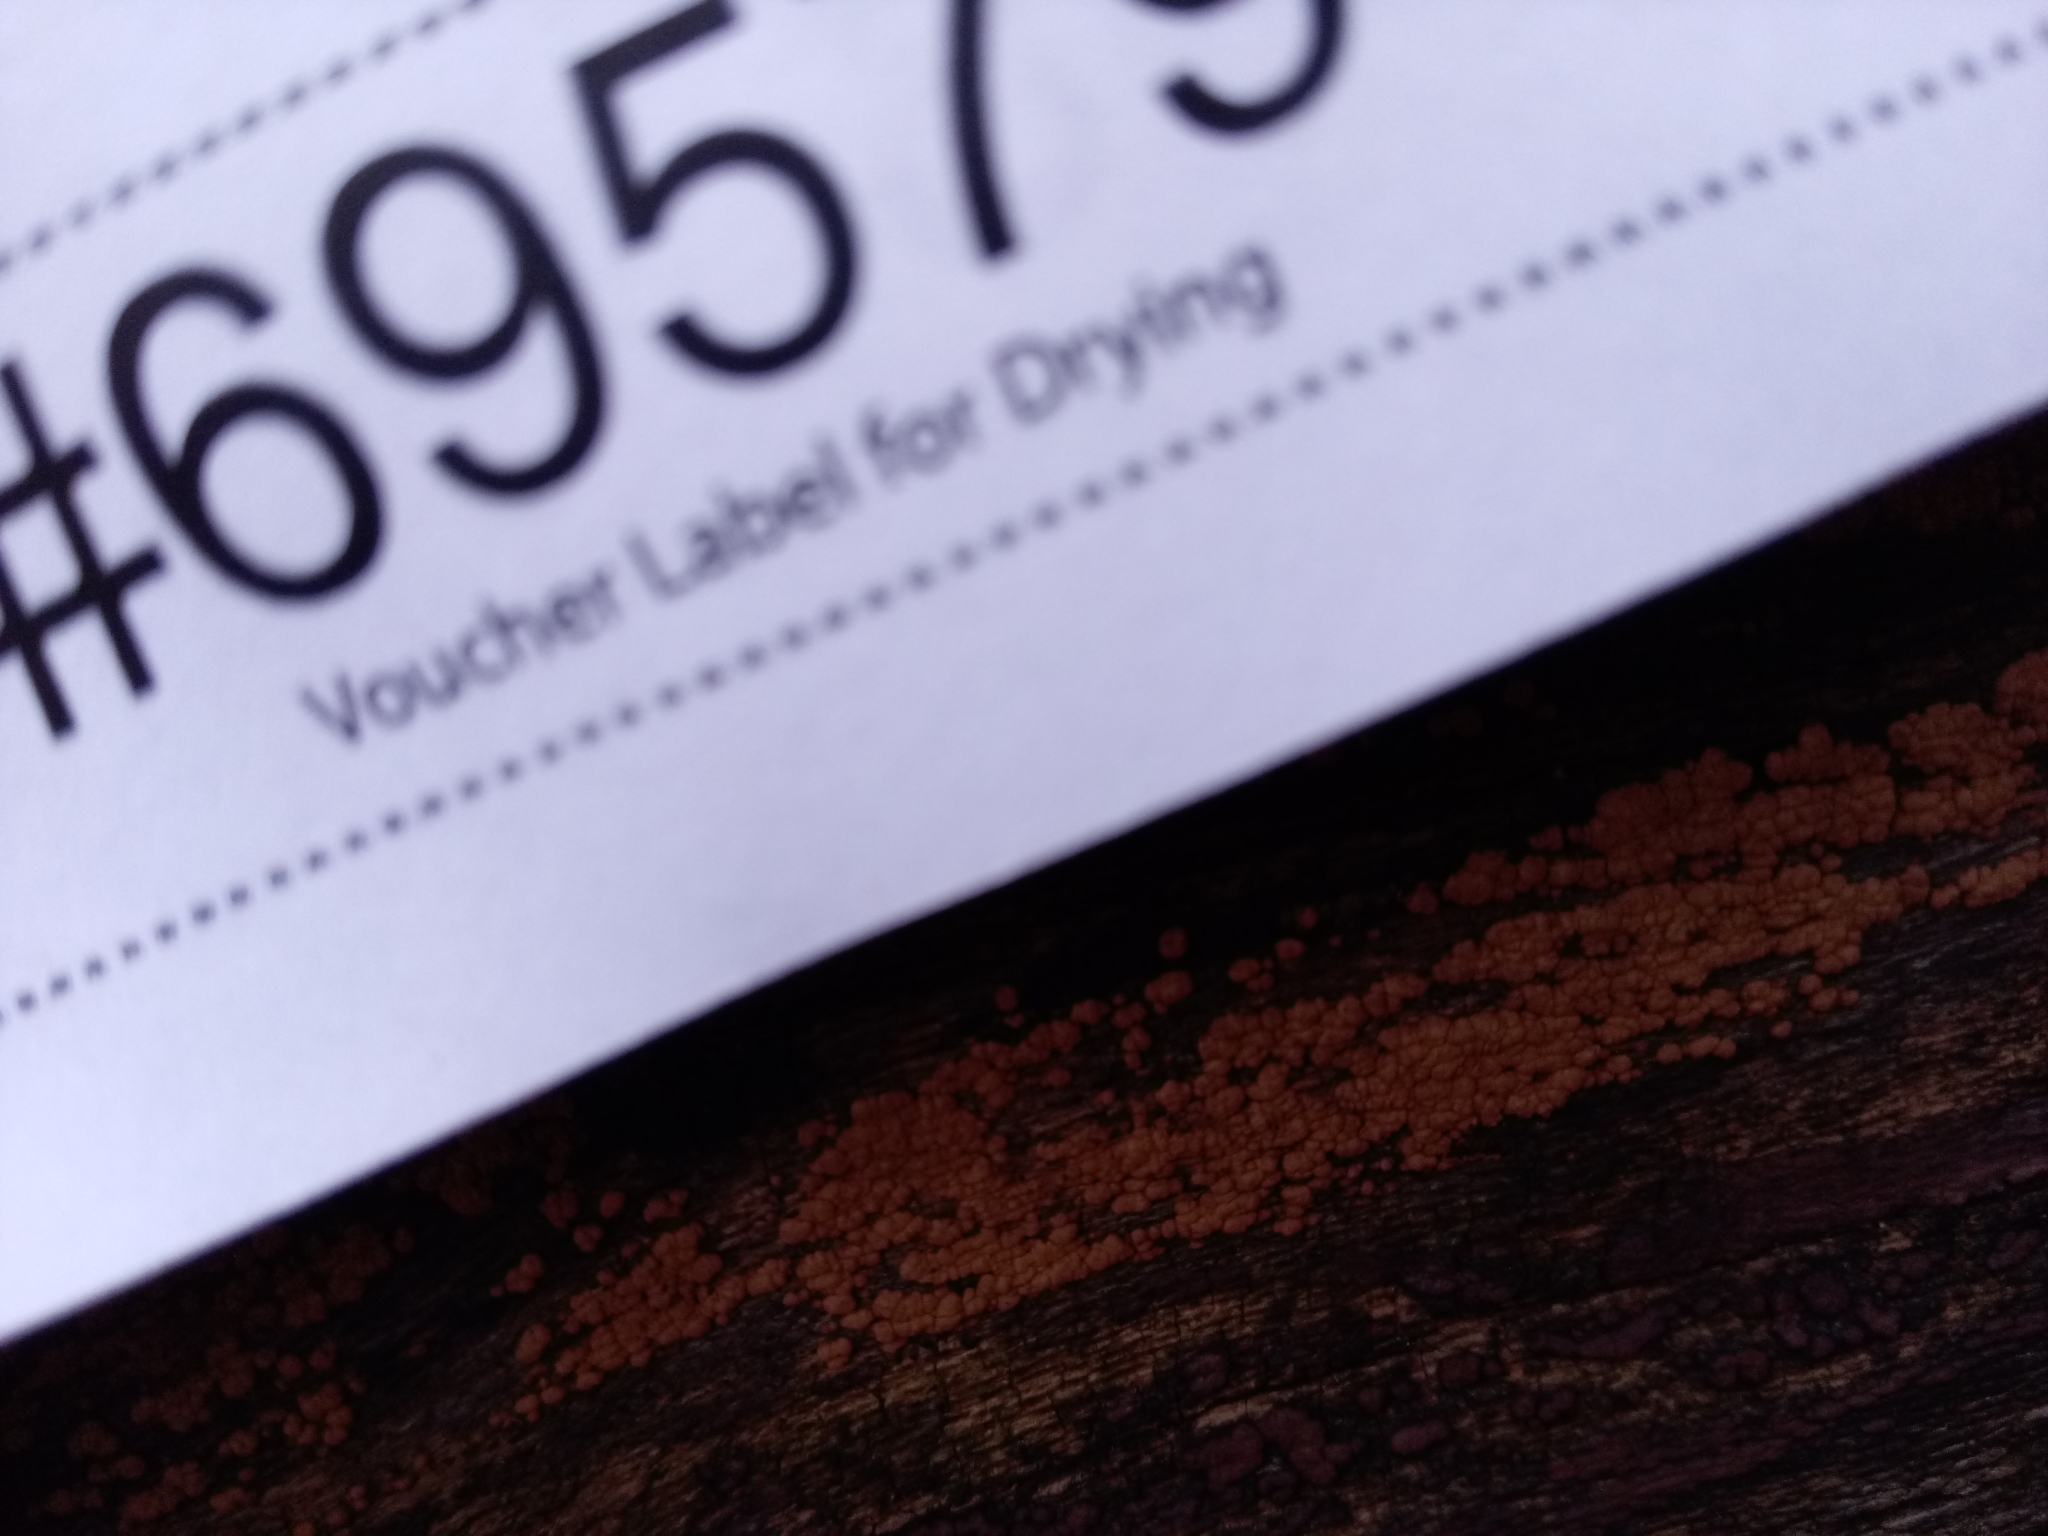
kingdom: Fungi
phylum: Ascomycota
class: Sordariomycetes
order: Xylariales
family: Hypoxylaceae
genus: Hypoxylon
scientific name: Hypoxylon ochraceum
